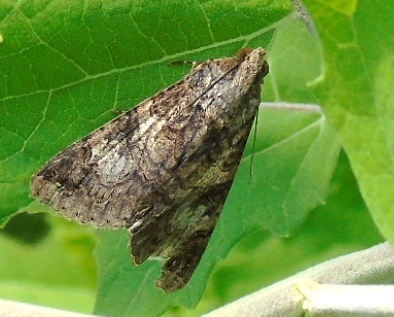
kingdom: Animalia
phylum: Arthropoda
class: Insecta
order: Lepidoptera
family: Erebidae
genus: Melipotis
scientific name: Melipotis famelica
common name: Famelica melipotis moth
